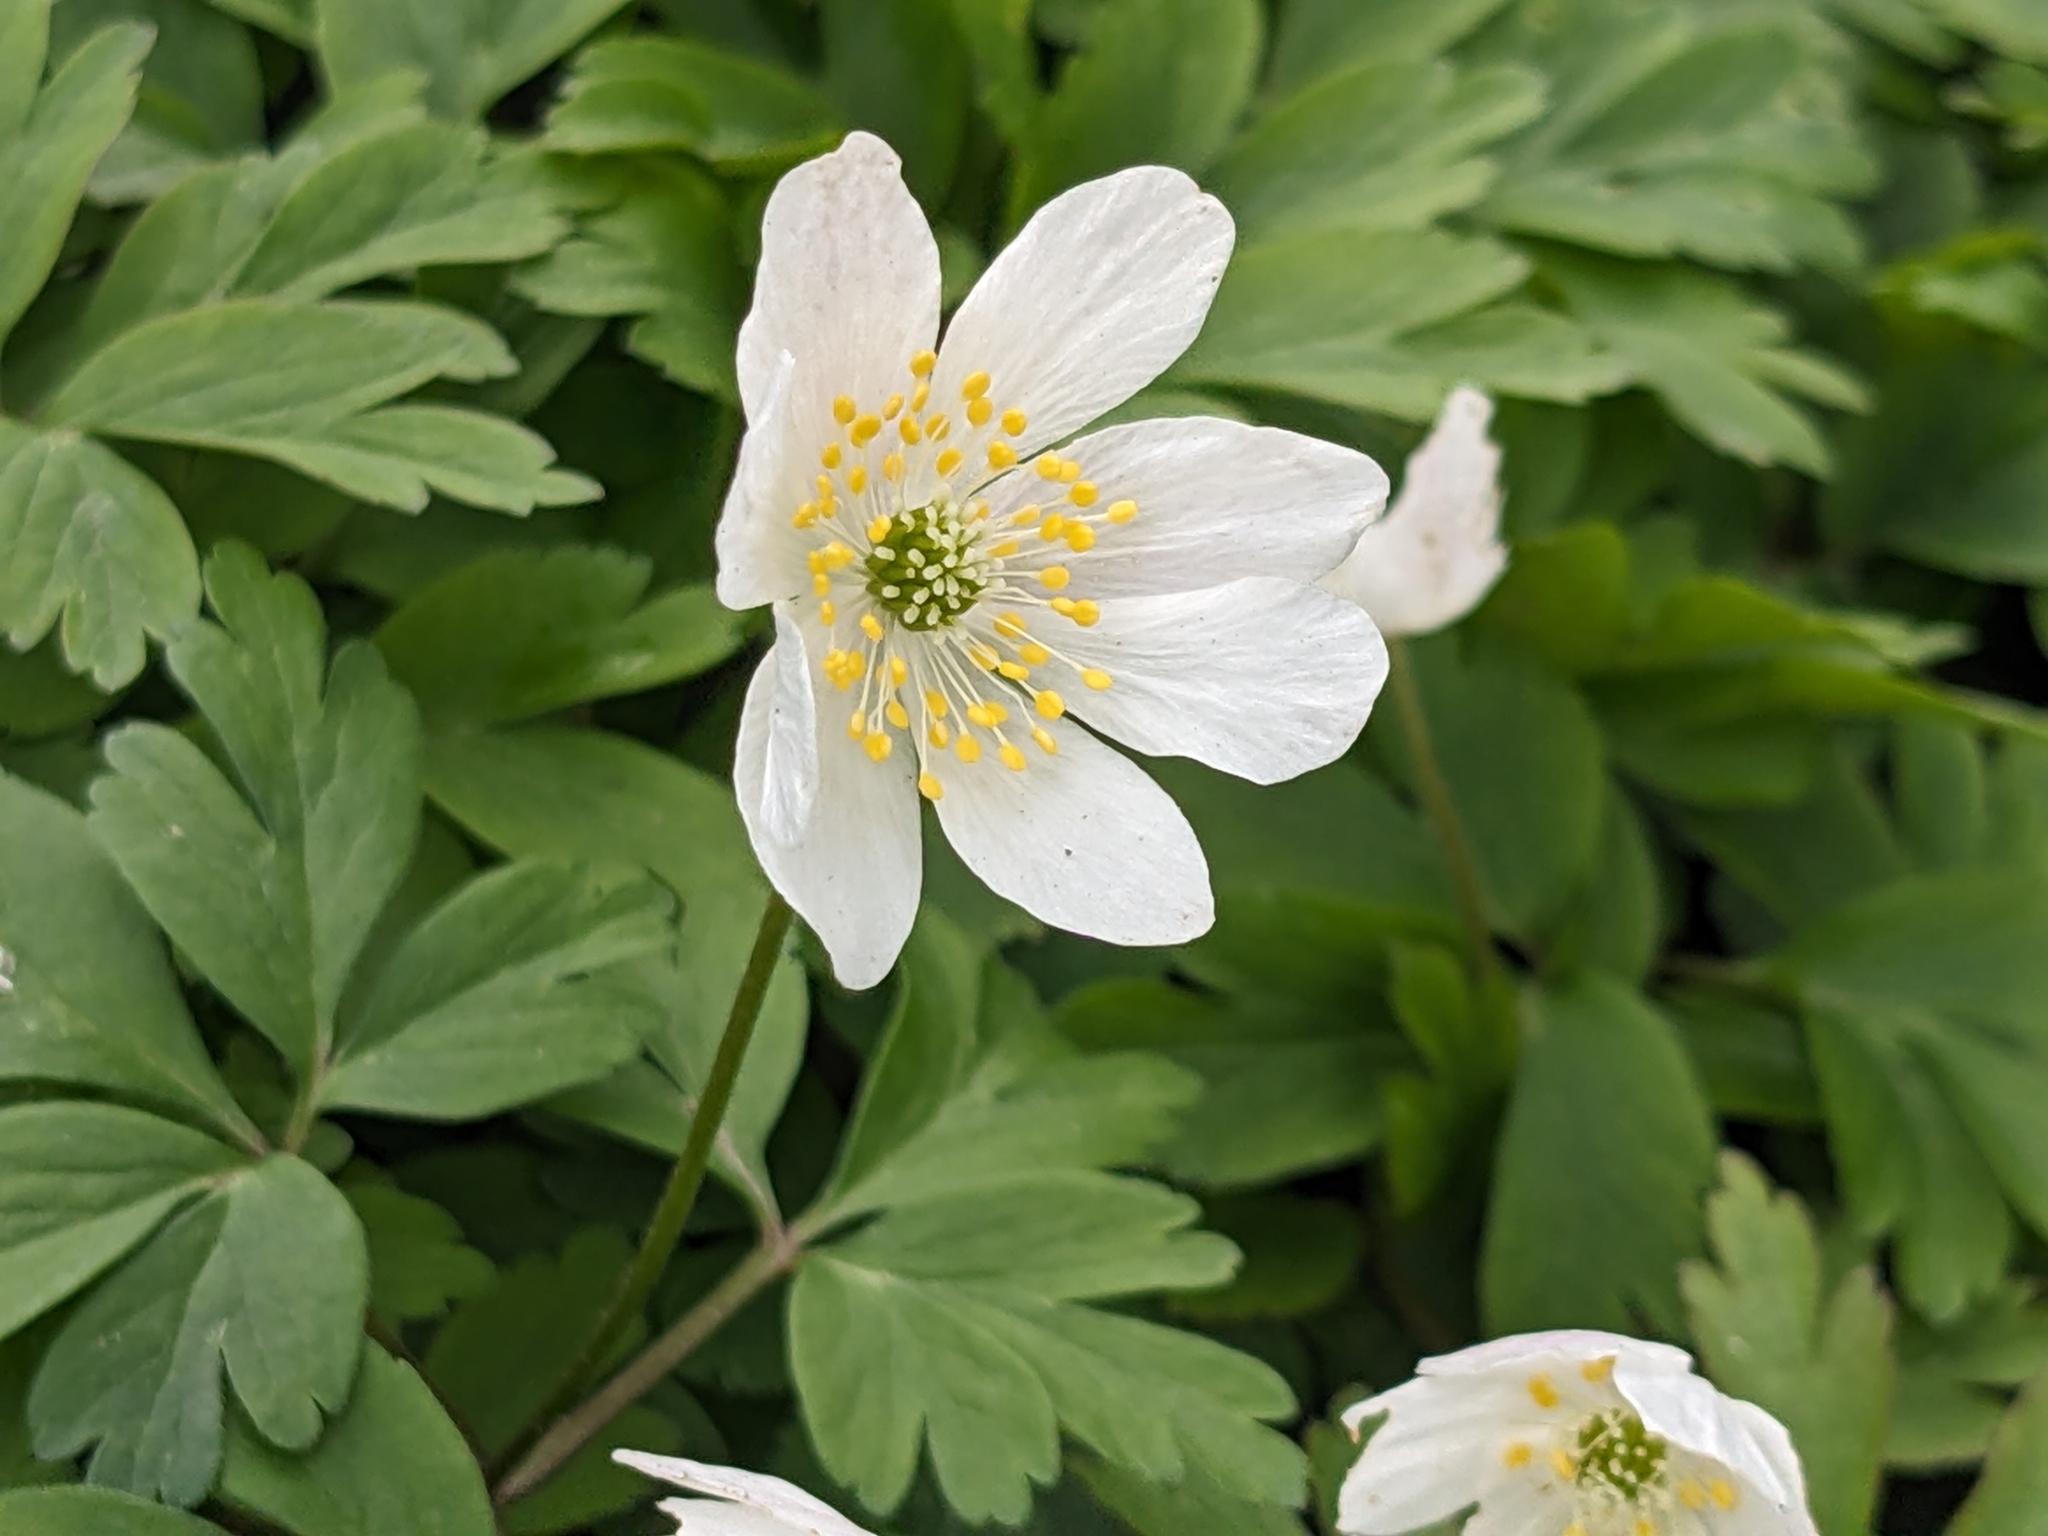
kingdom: Plantae
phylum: Tracheophyta
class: Magnoliopsida
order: Ranunculales
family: Ranunculaceae
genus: Anemone
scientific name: Anemone nemorosa
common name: Wood anemone
